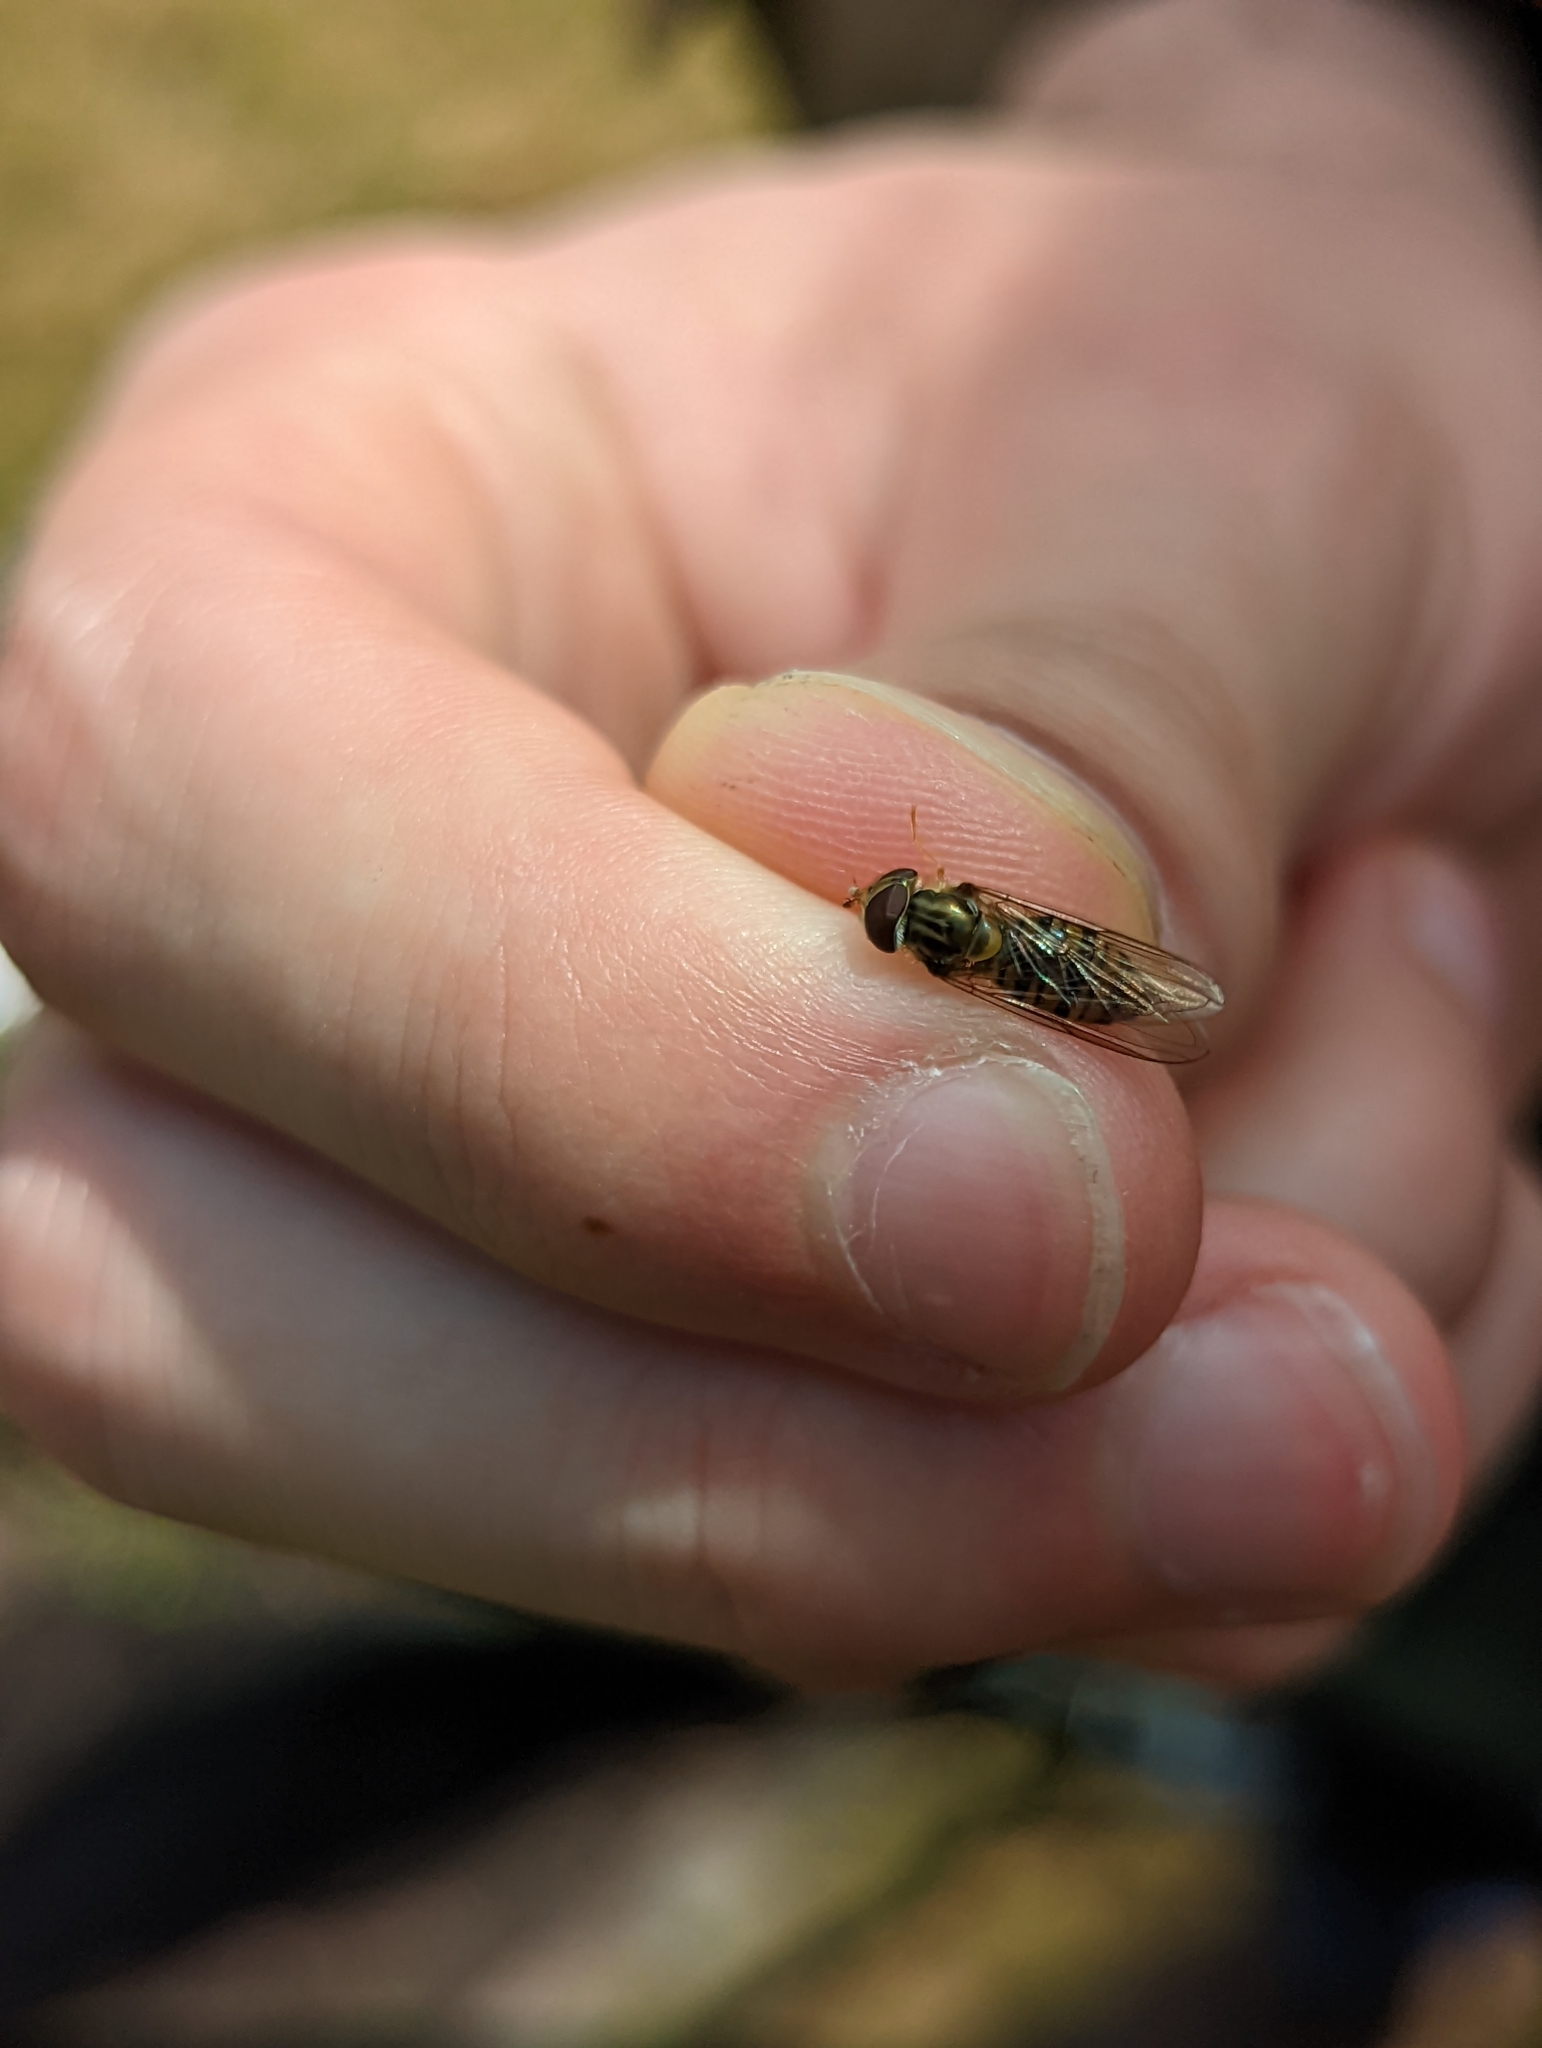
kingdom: Animalia
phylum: Arthropoda
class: Insecta
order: Diptera
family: Syrphidae
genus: Episyrphus
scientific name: Episyrphus balteatus
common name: Marmalade hoverfly
